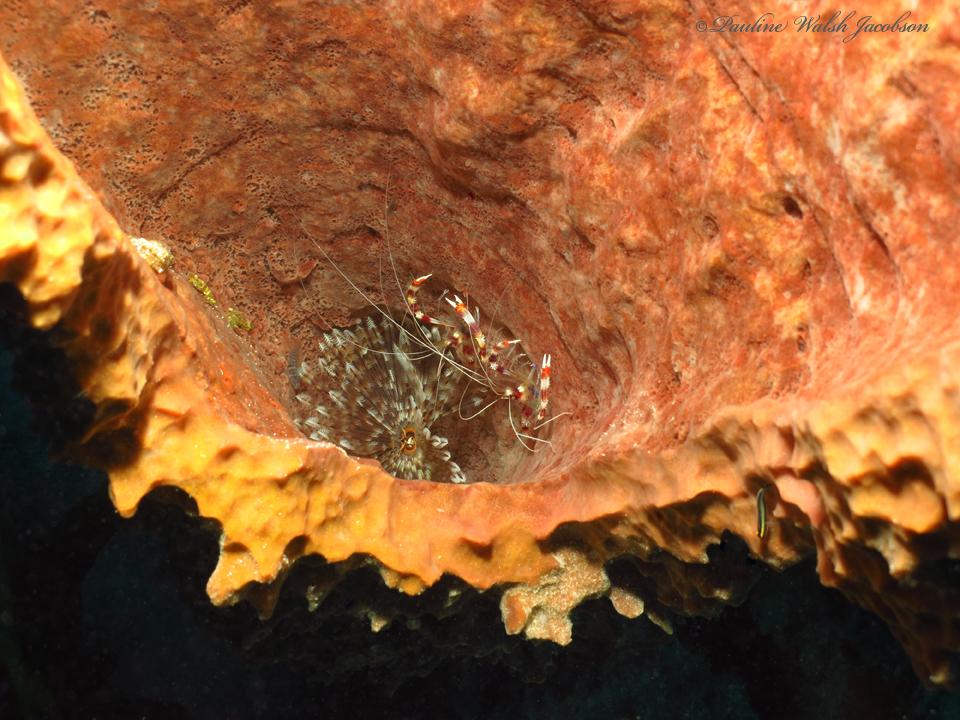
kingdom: Animalia
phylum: Arthropoda
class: Malacostraca
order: Decapoda
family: Stenopodidae
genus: Stenopus
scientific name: Stenopus hispidus
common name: Banded coral shrimp
